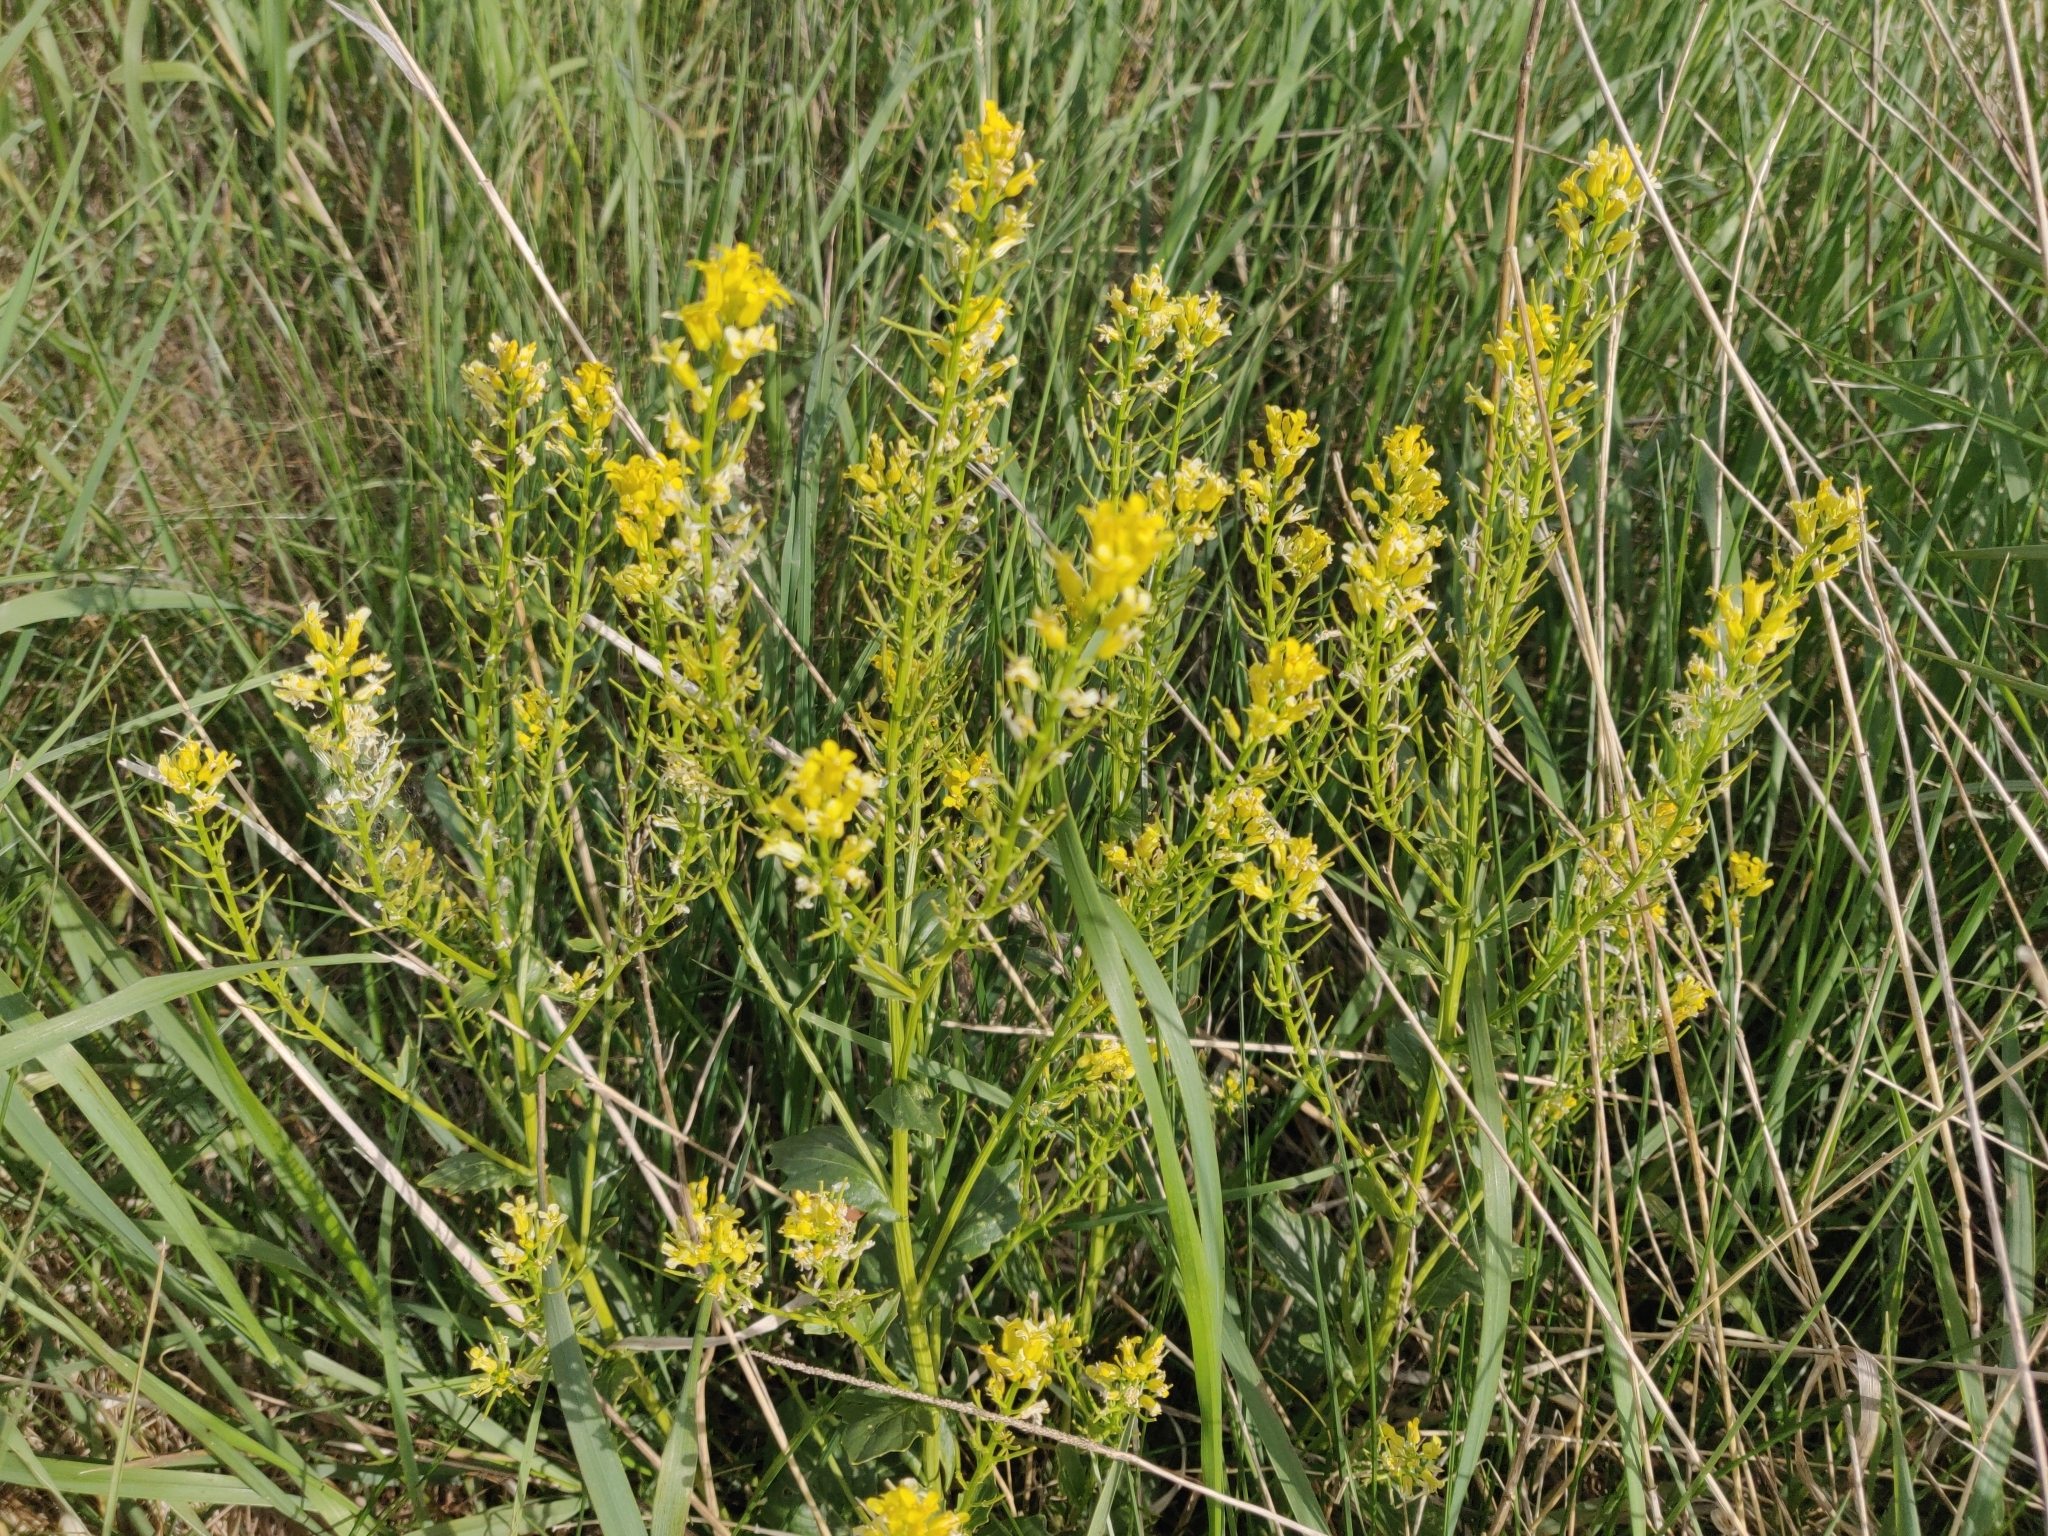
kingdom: Plantae
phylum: Tracheophyta
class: Magnoliopsida
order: Brassicales
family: Brassicaceae
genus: Barbarea
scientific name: Barbarea vulgaris
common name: Cressy-greens
